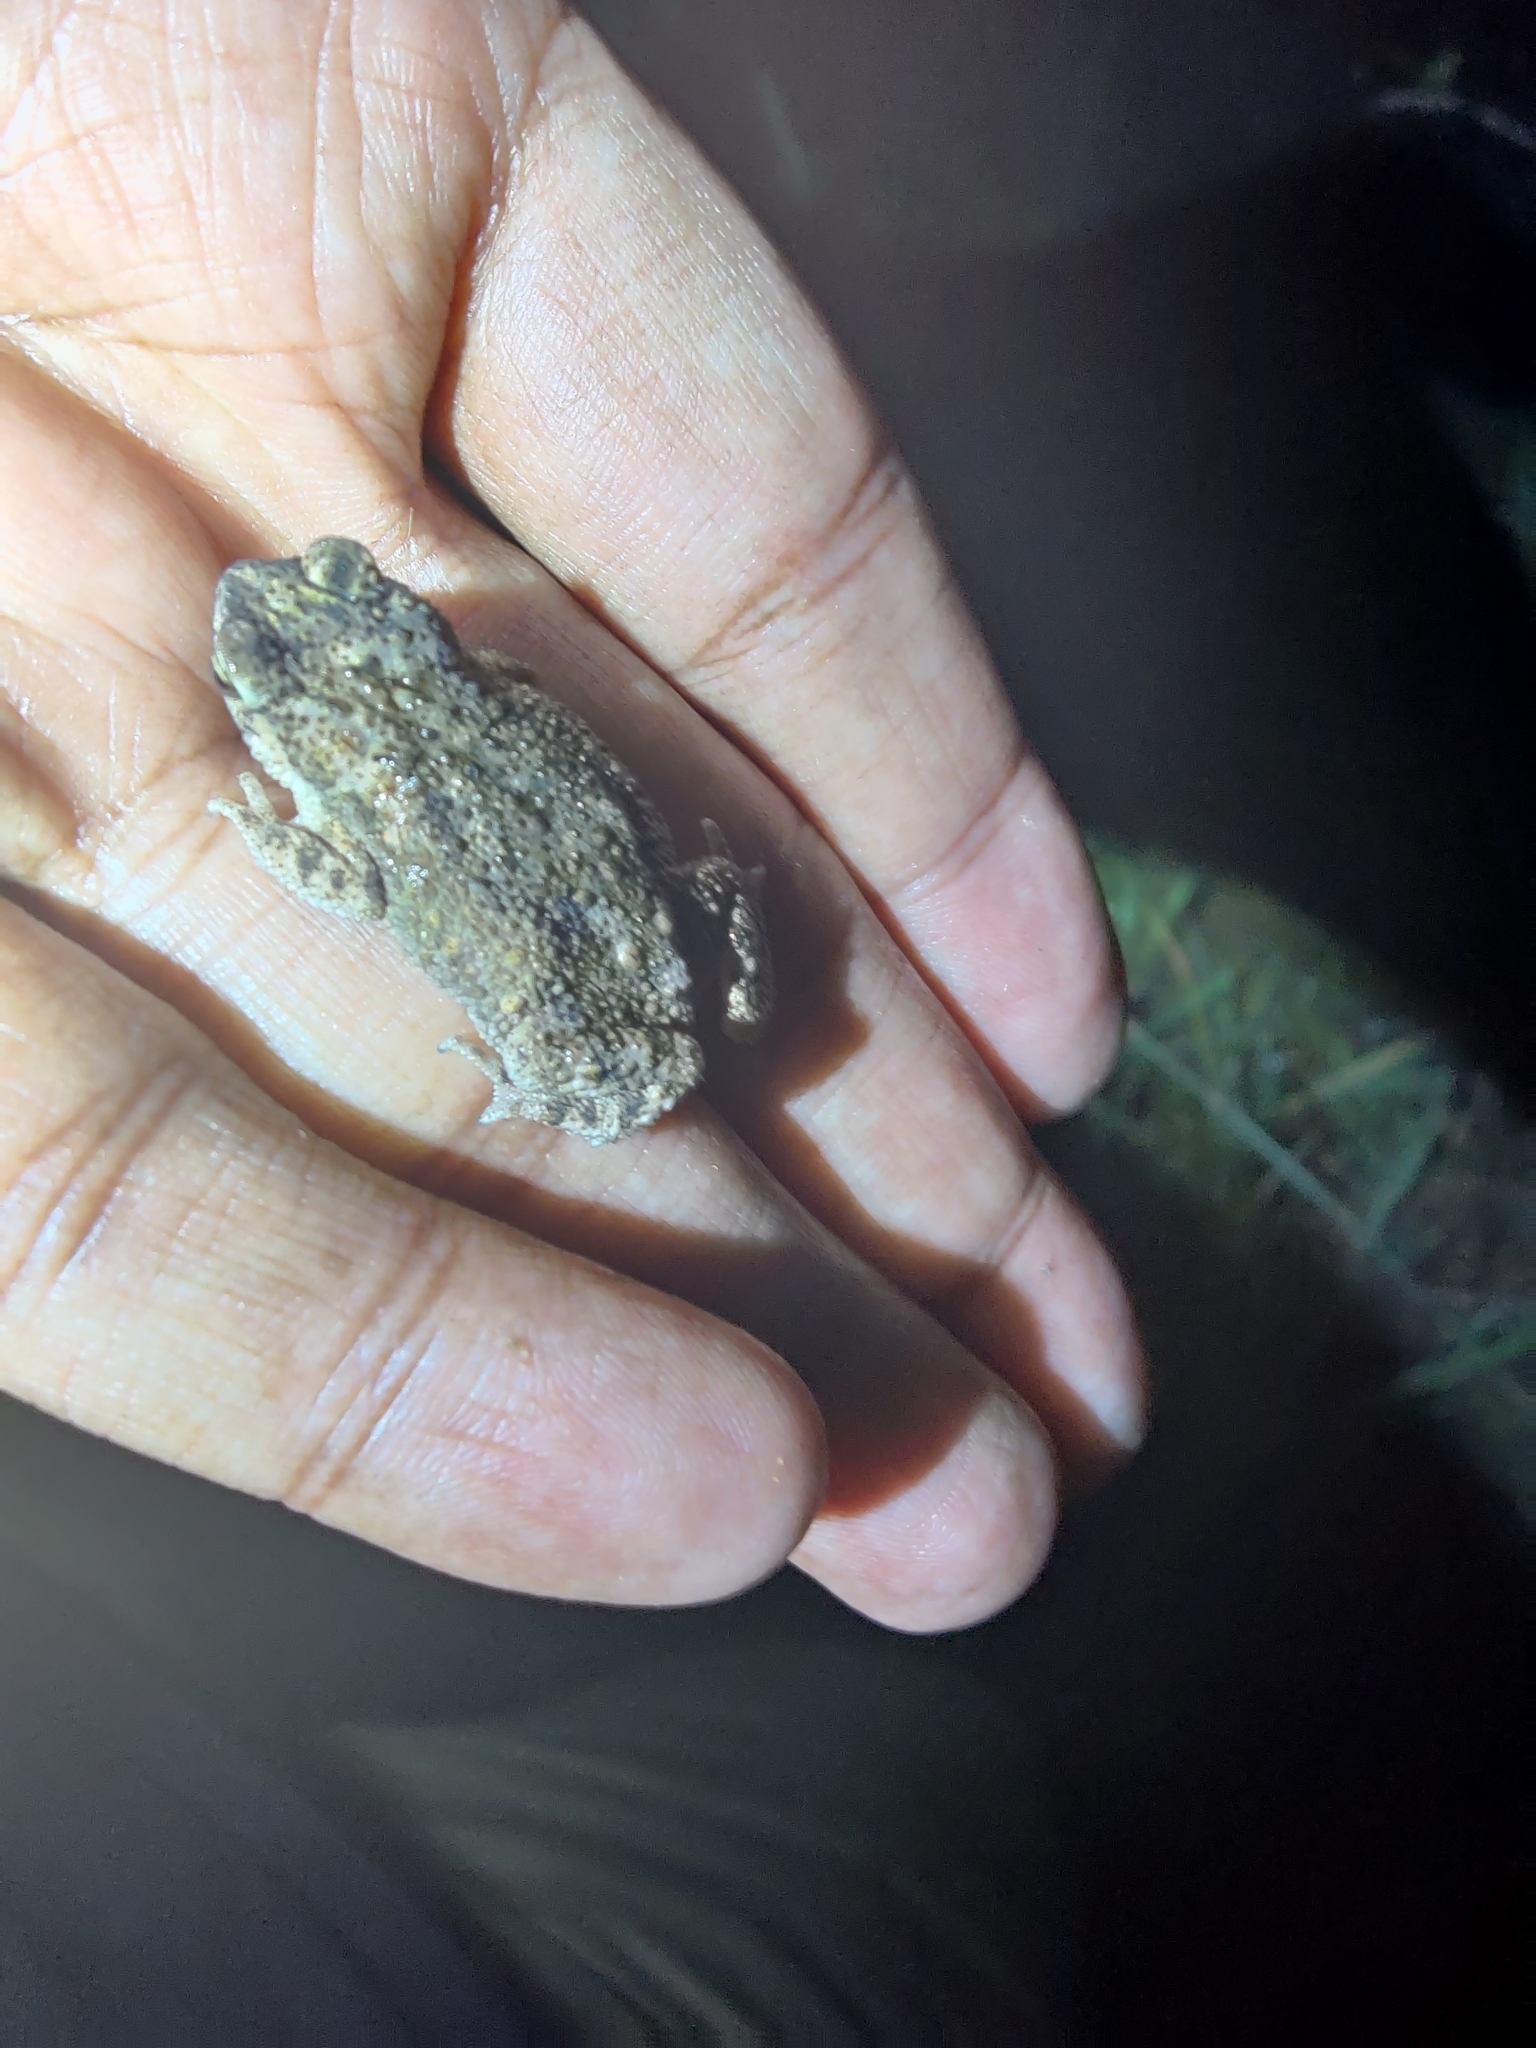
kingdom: Animalia
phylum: Chordata
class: Amphibia
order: Anura
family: Bufonidae
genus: Duttaphrynus
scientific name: Duttaphrynus scaber
